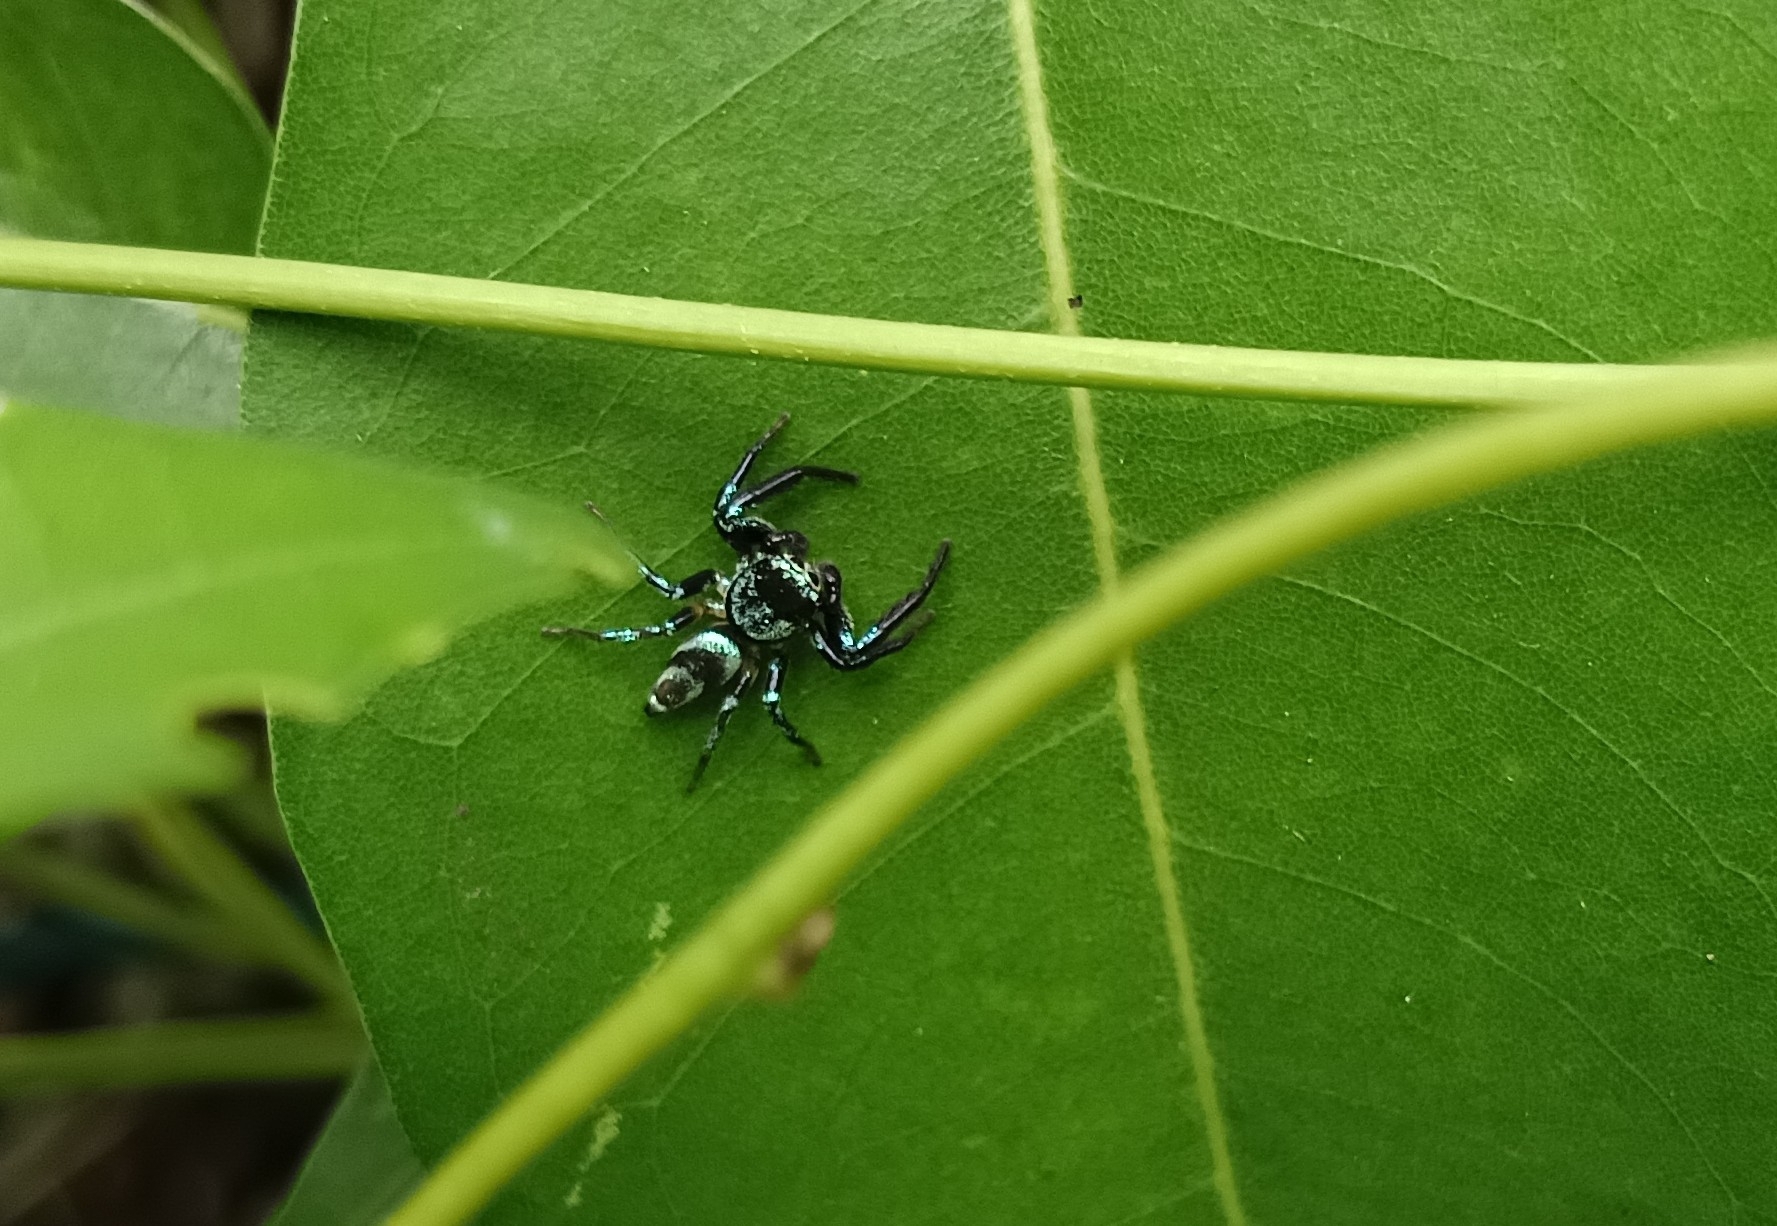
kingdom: Animalia
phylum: Arthropoda
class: Arachnida
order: Araneae
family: Salticidae
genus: Thiania
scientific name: Thiania bhamoensis
